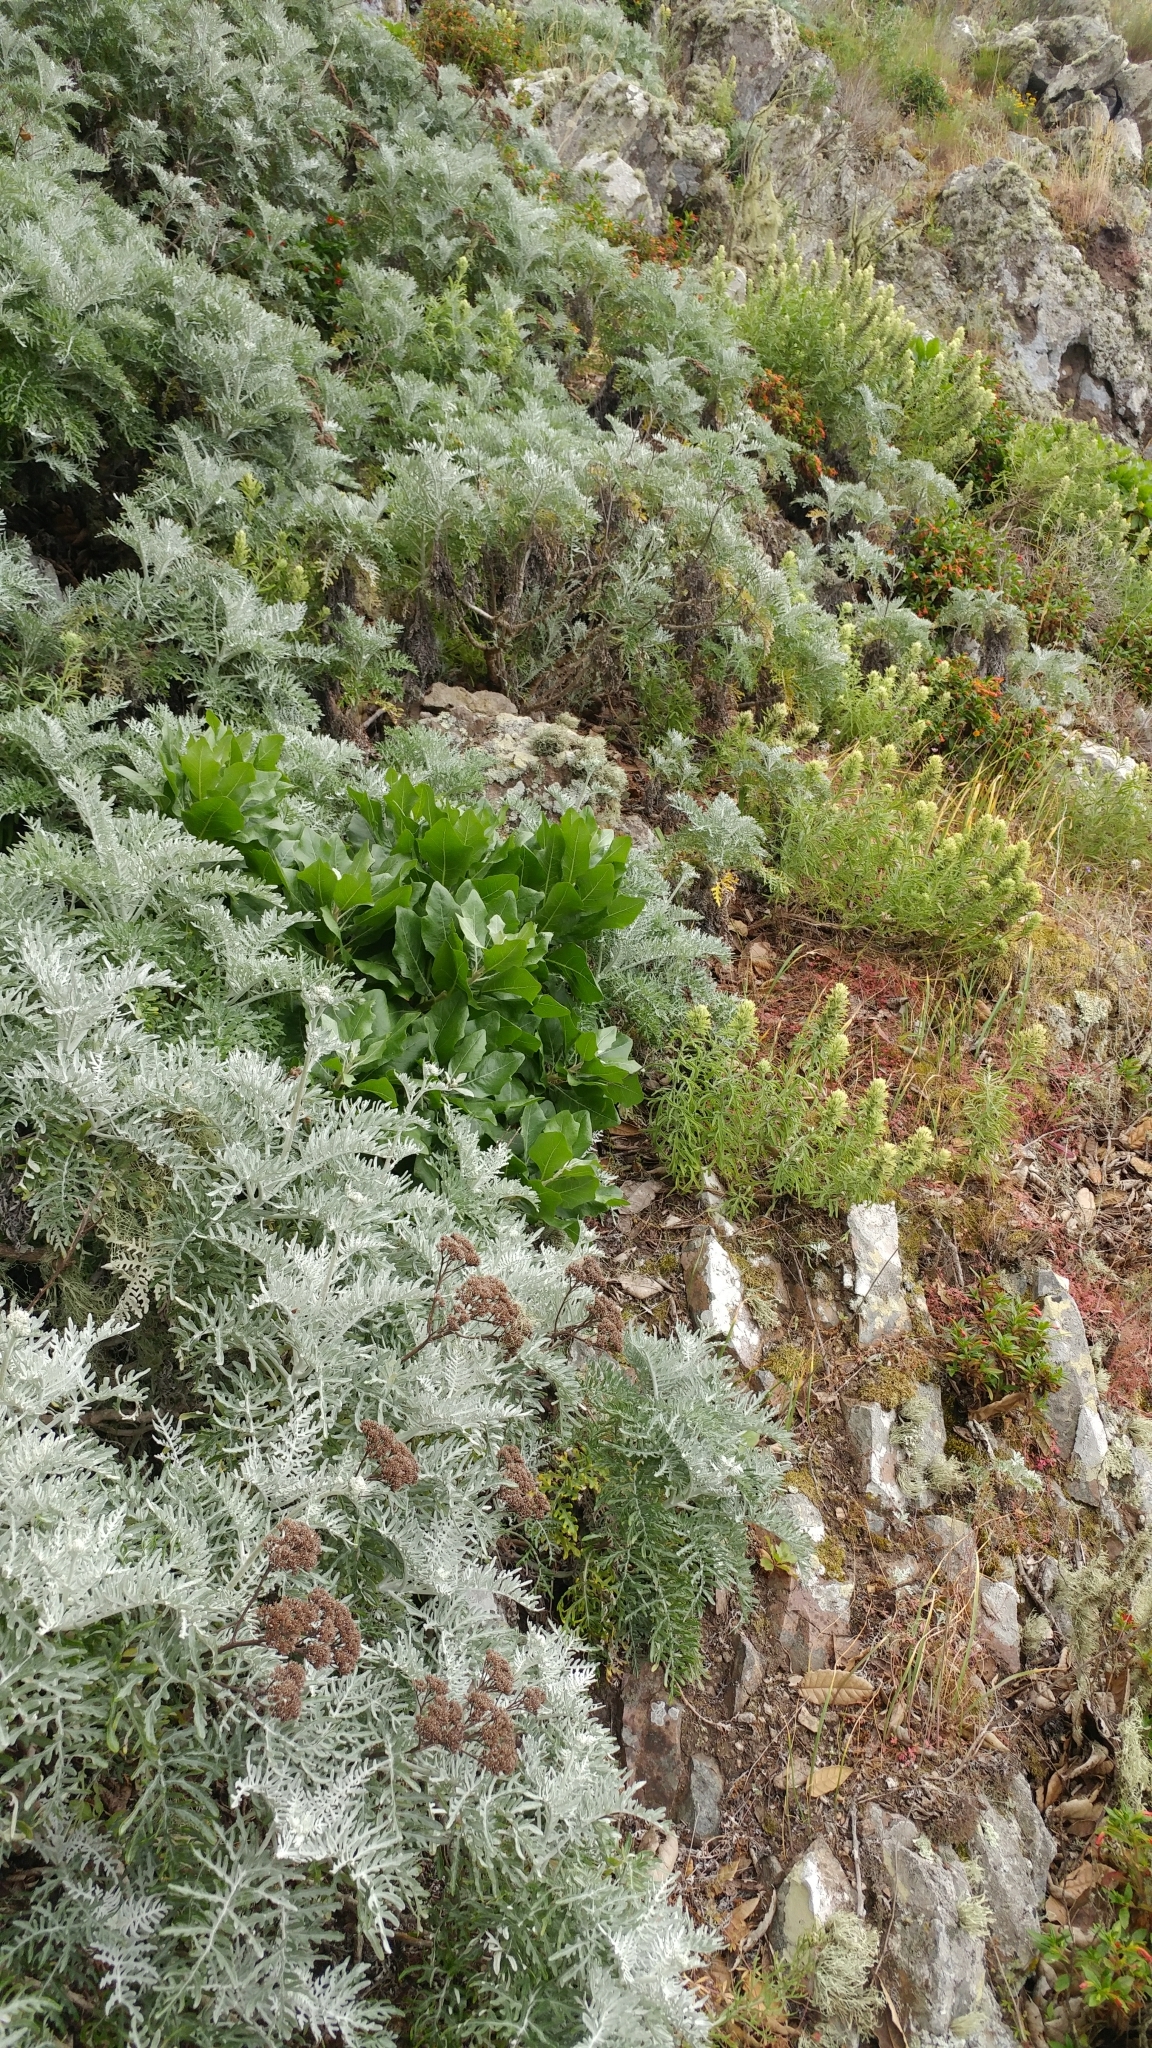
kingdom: Plantae
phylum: Tracheophyta
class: Magnoliopsida
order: Lamiales
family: Orobanchaceae
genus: Castilleja
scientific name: Castilleja grisea
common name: San clemente island indian paintbrush
